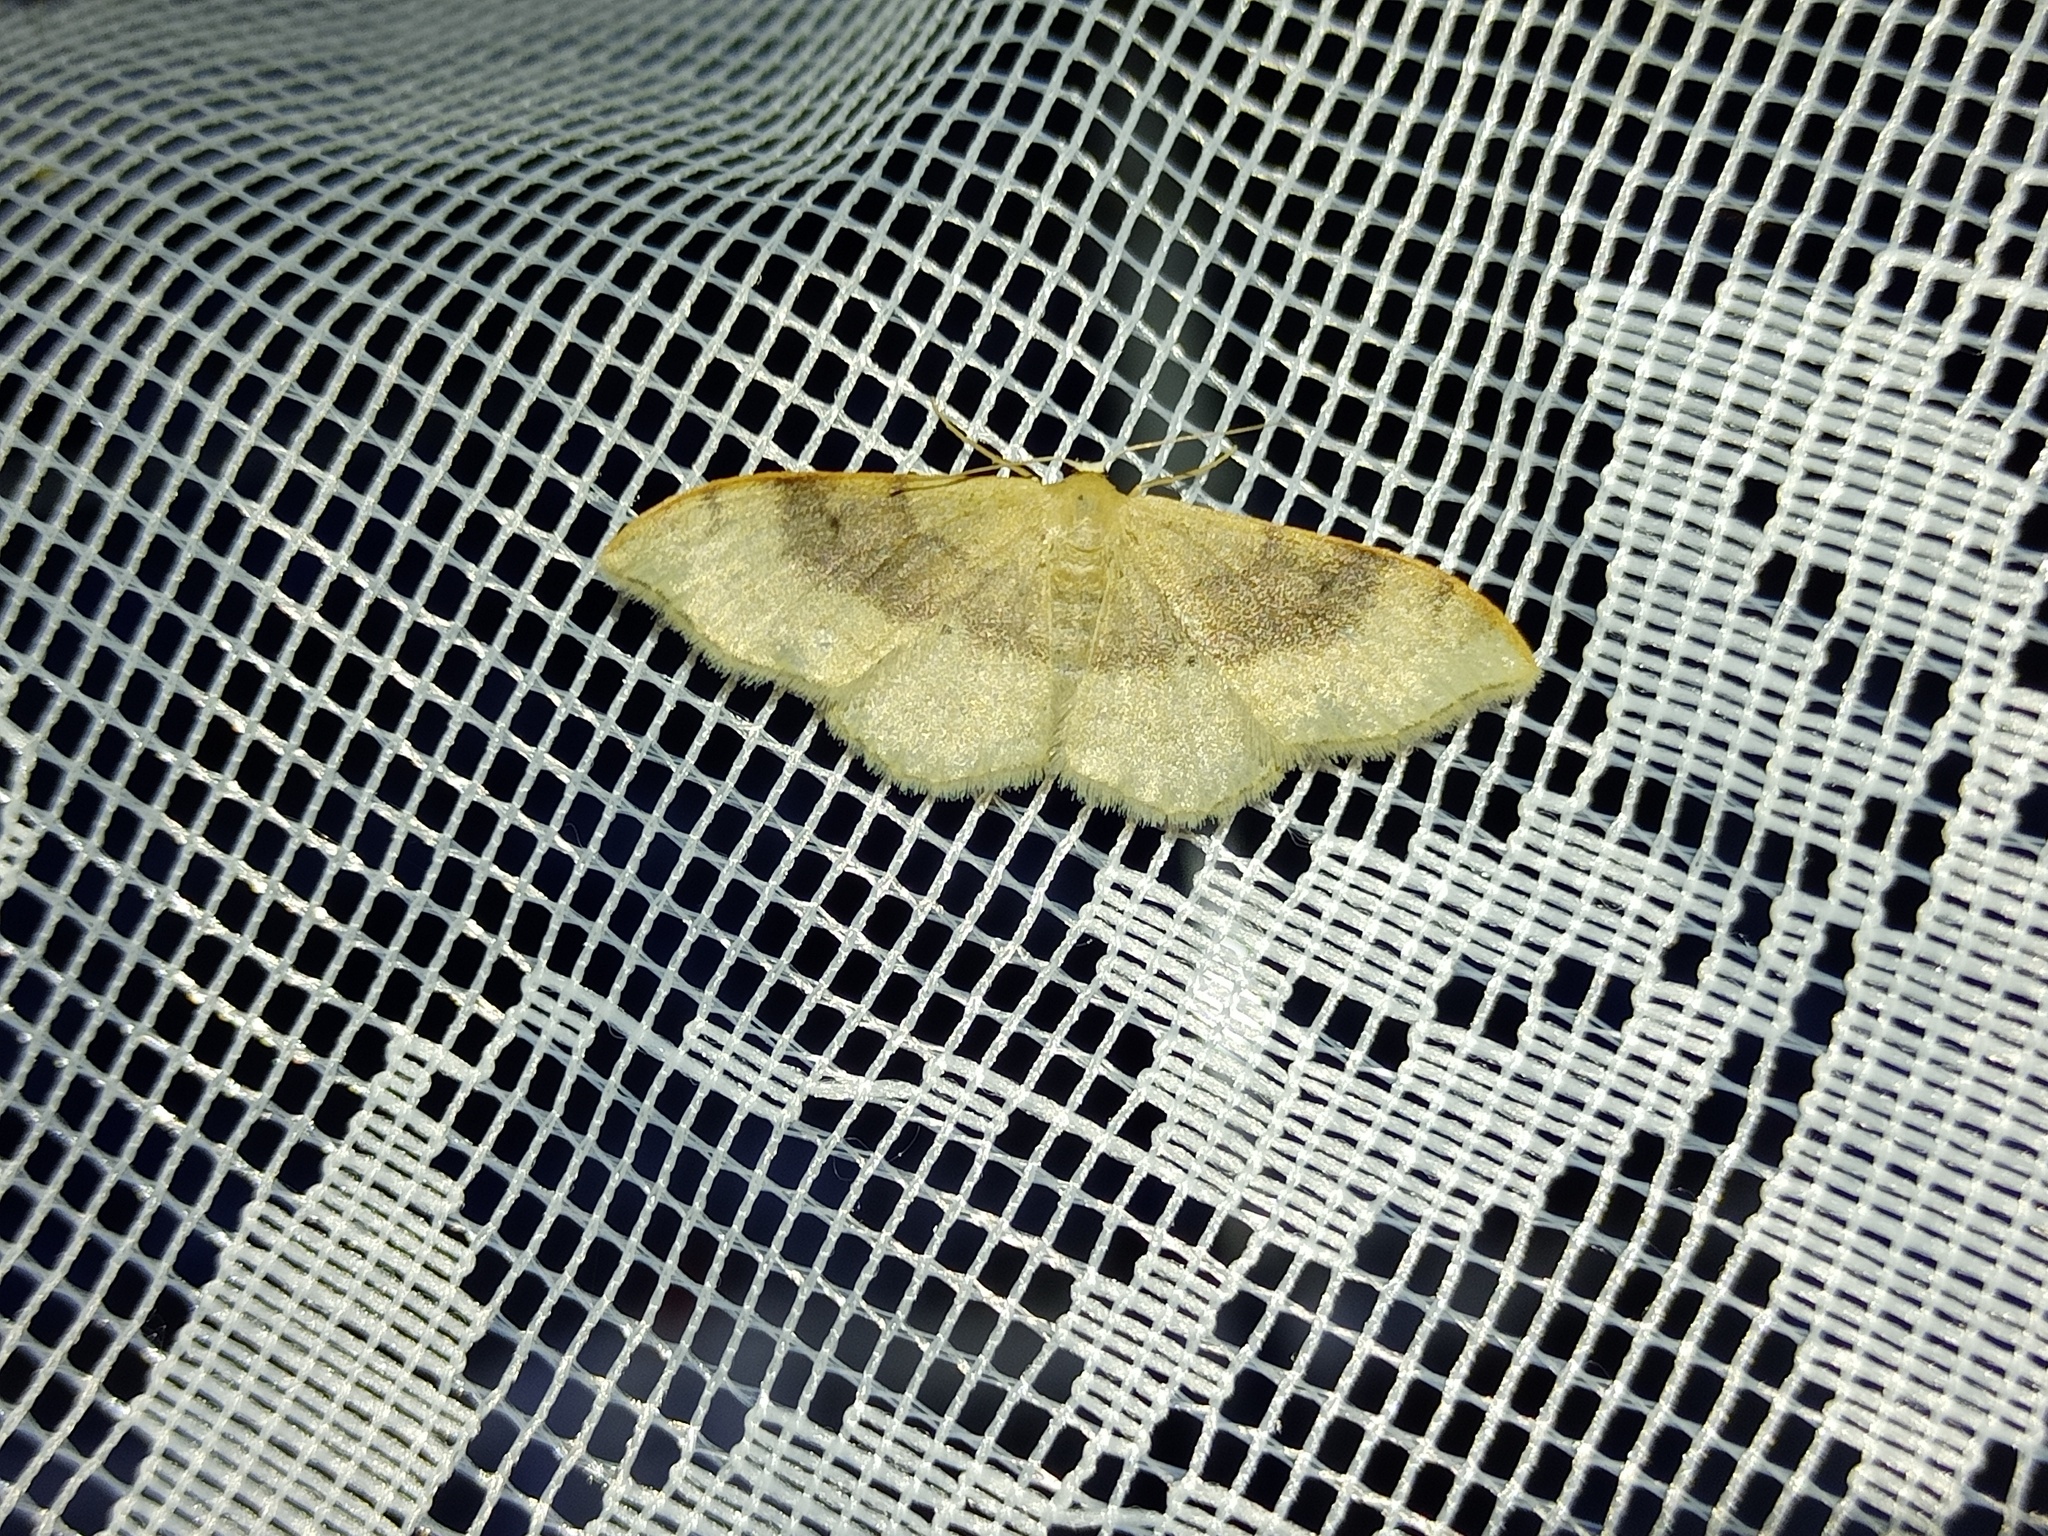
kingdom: Animalia
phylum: Arthropoda
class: Insecta
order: Lepidoptera
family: Geometridae
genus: Idaea
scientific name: Idaea degeneraria
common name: Portland ribbon wave
